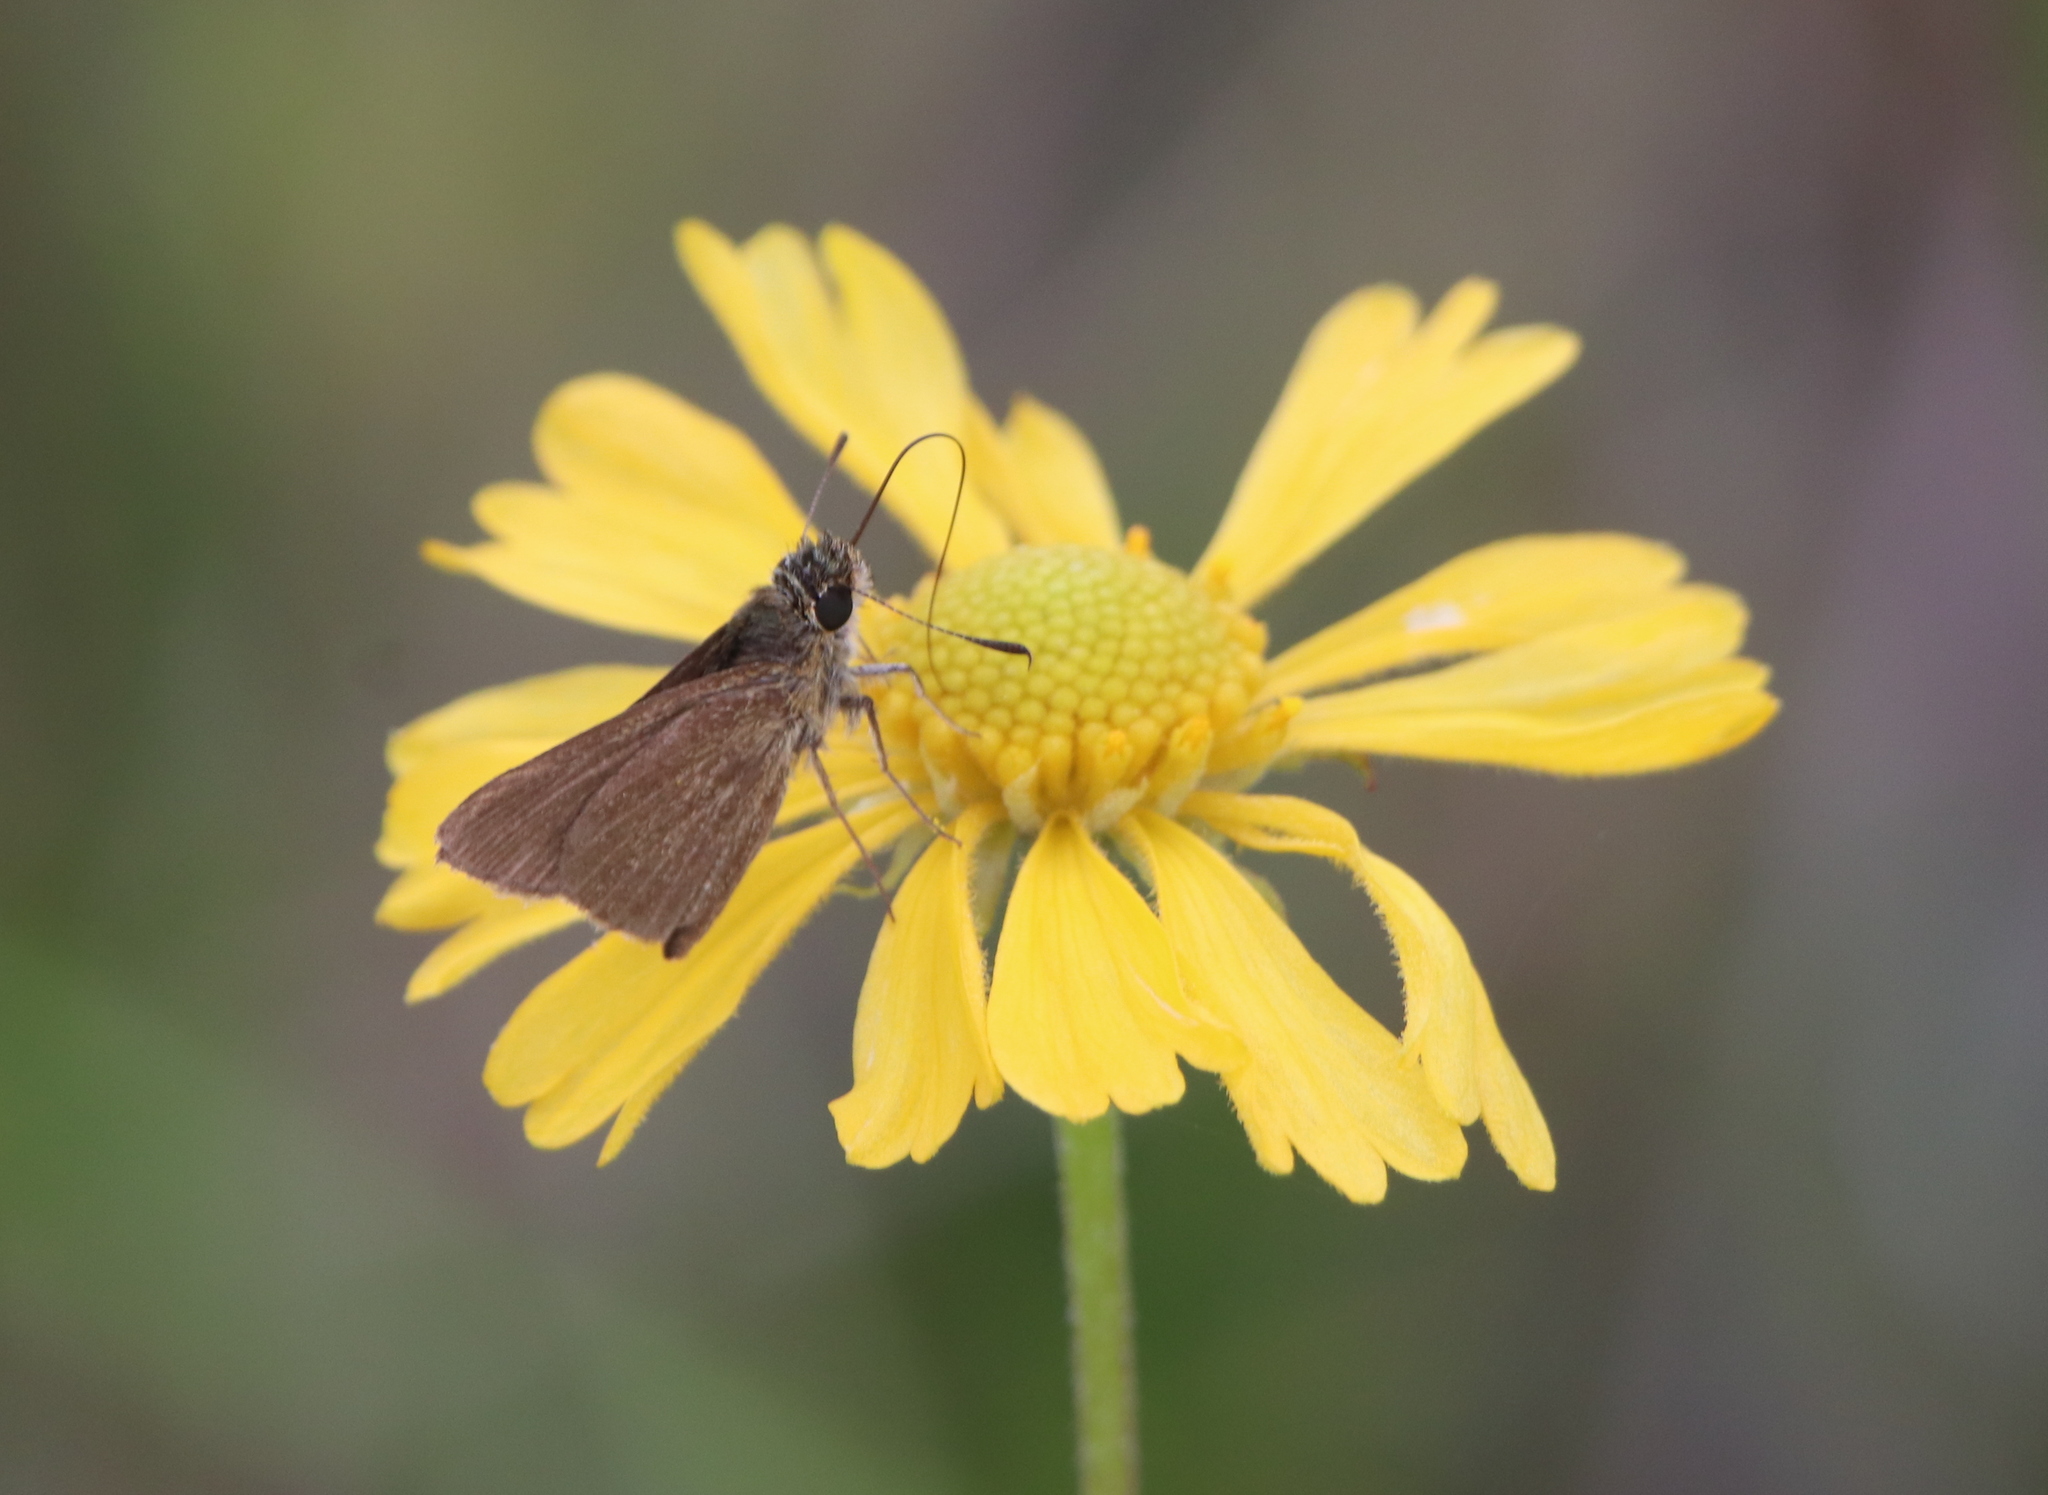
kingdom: Animalia
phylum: Arthropoda
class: Insecta
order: Lepidoptera
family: Hesperiidae
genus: Nastra
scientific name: Nastra lherminier
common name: Swarthy skipper
